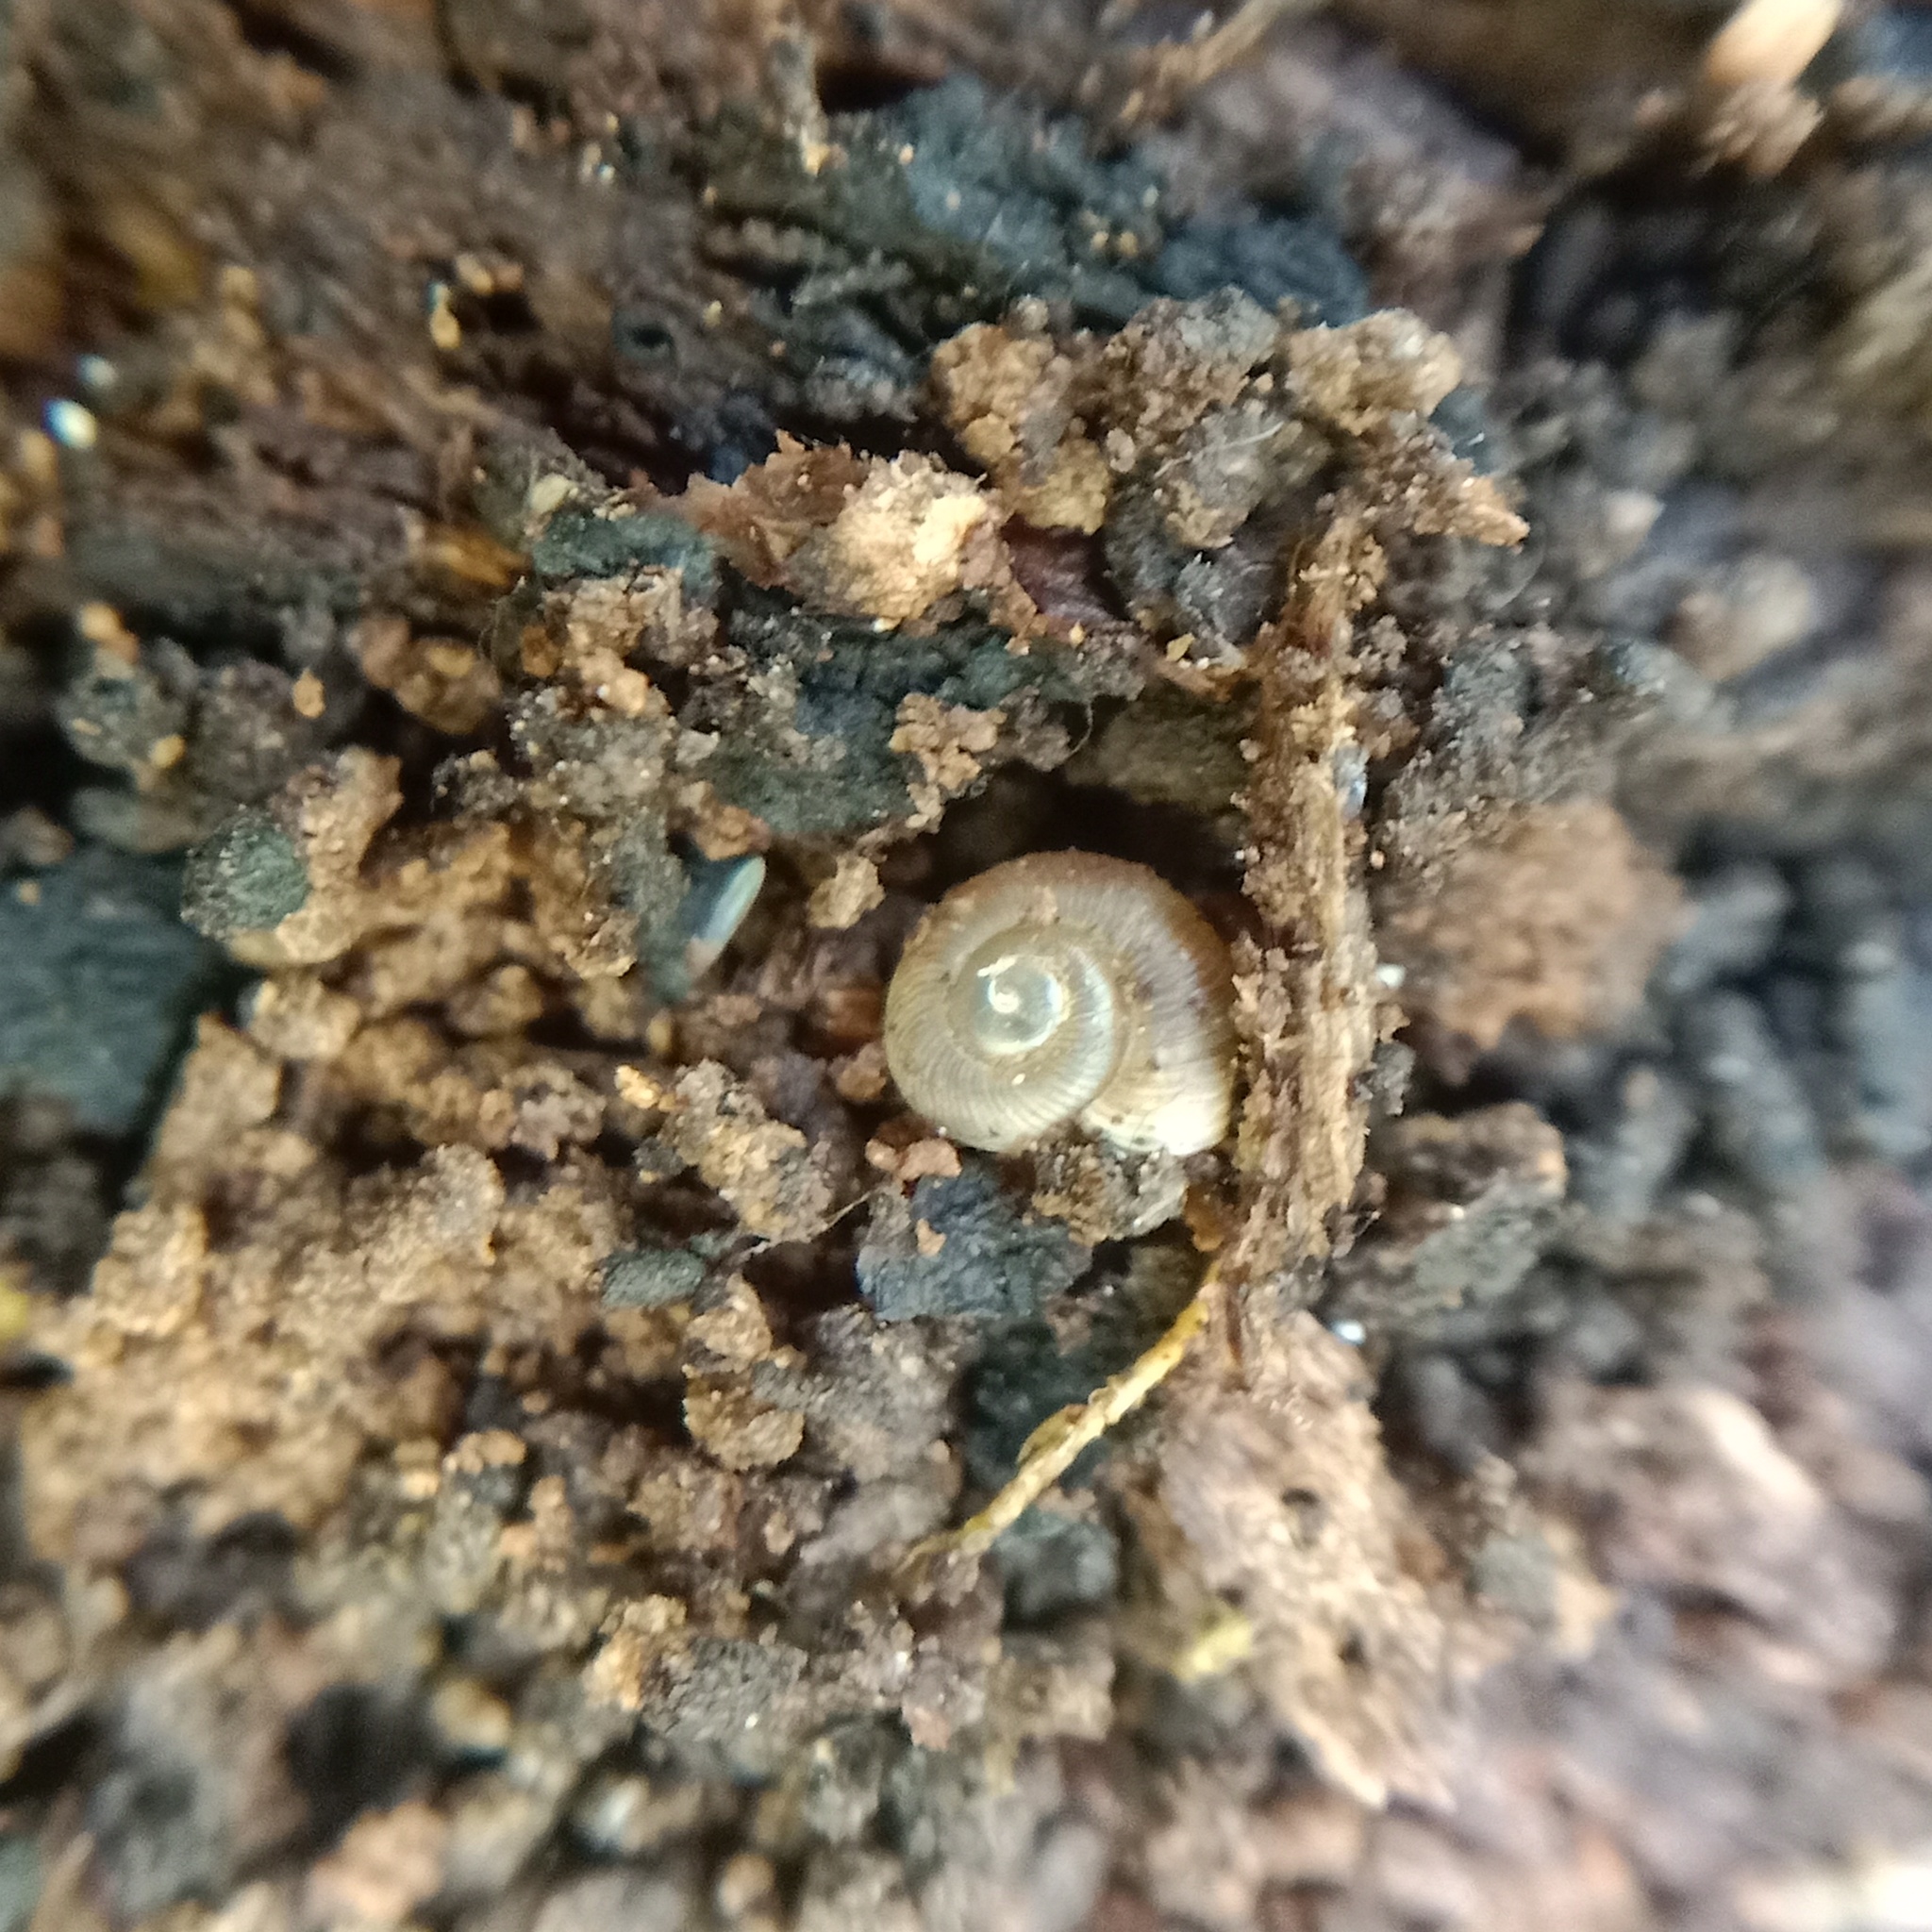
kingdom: Animalia
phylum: Mollusca
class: Gastropoda
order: Stylommatophora
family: Discidae
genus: Discus
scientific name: Discus ruderatus
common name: Brown disc snail
